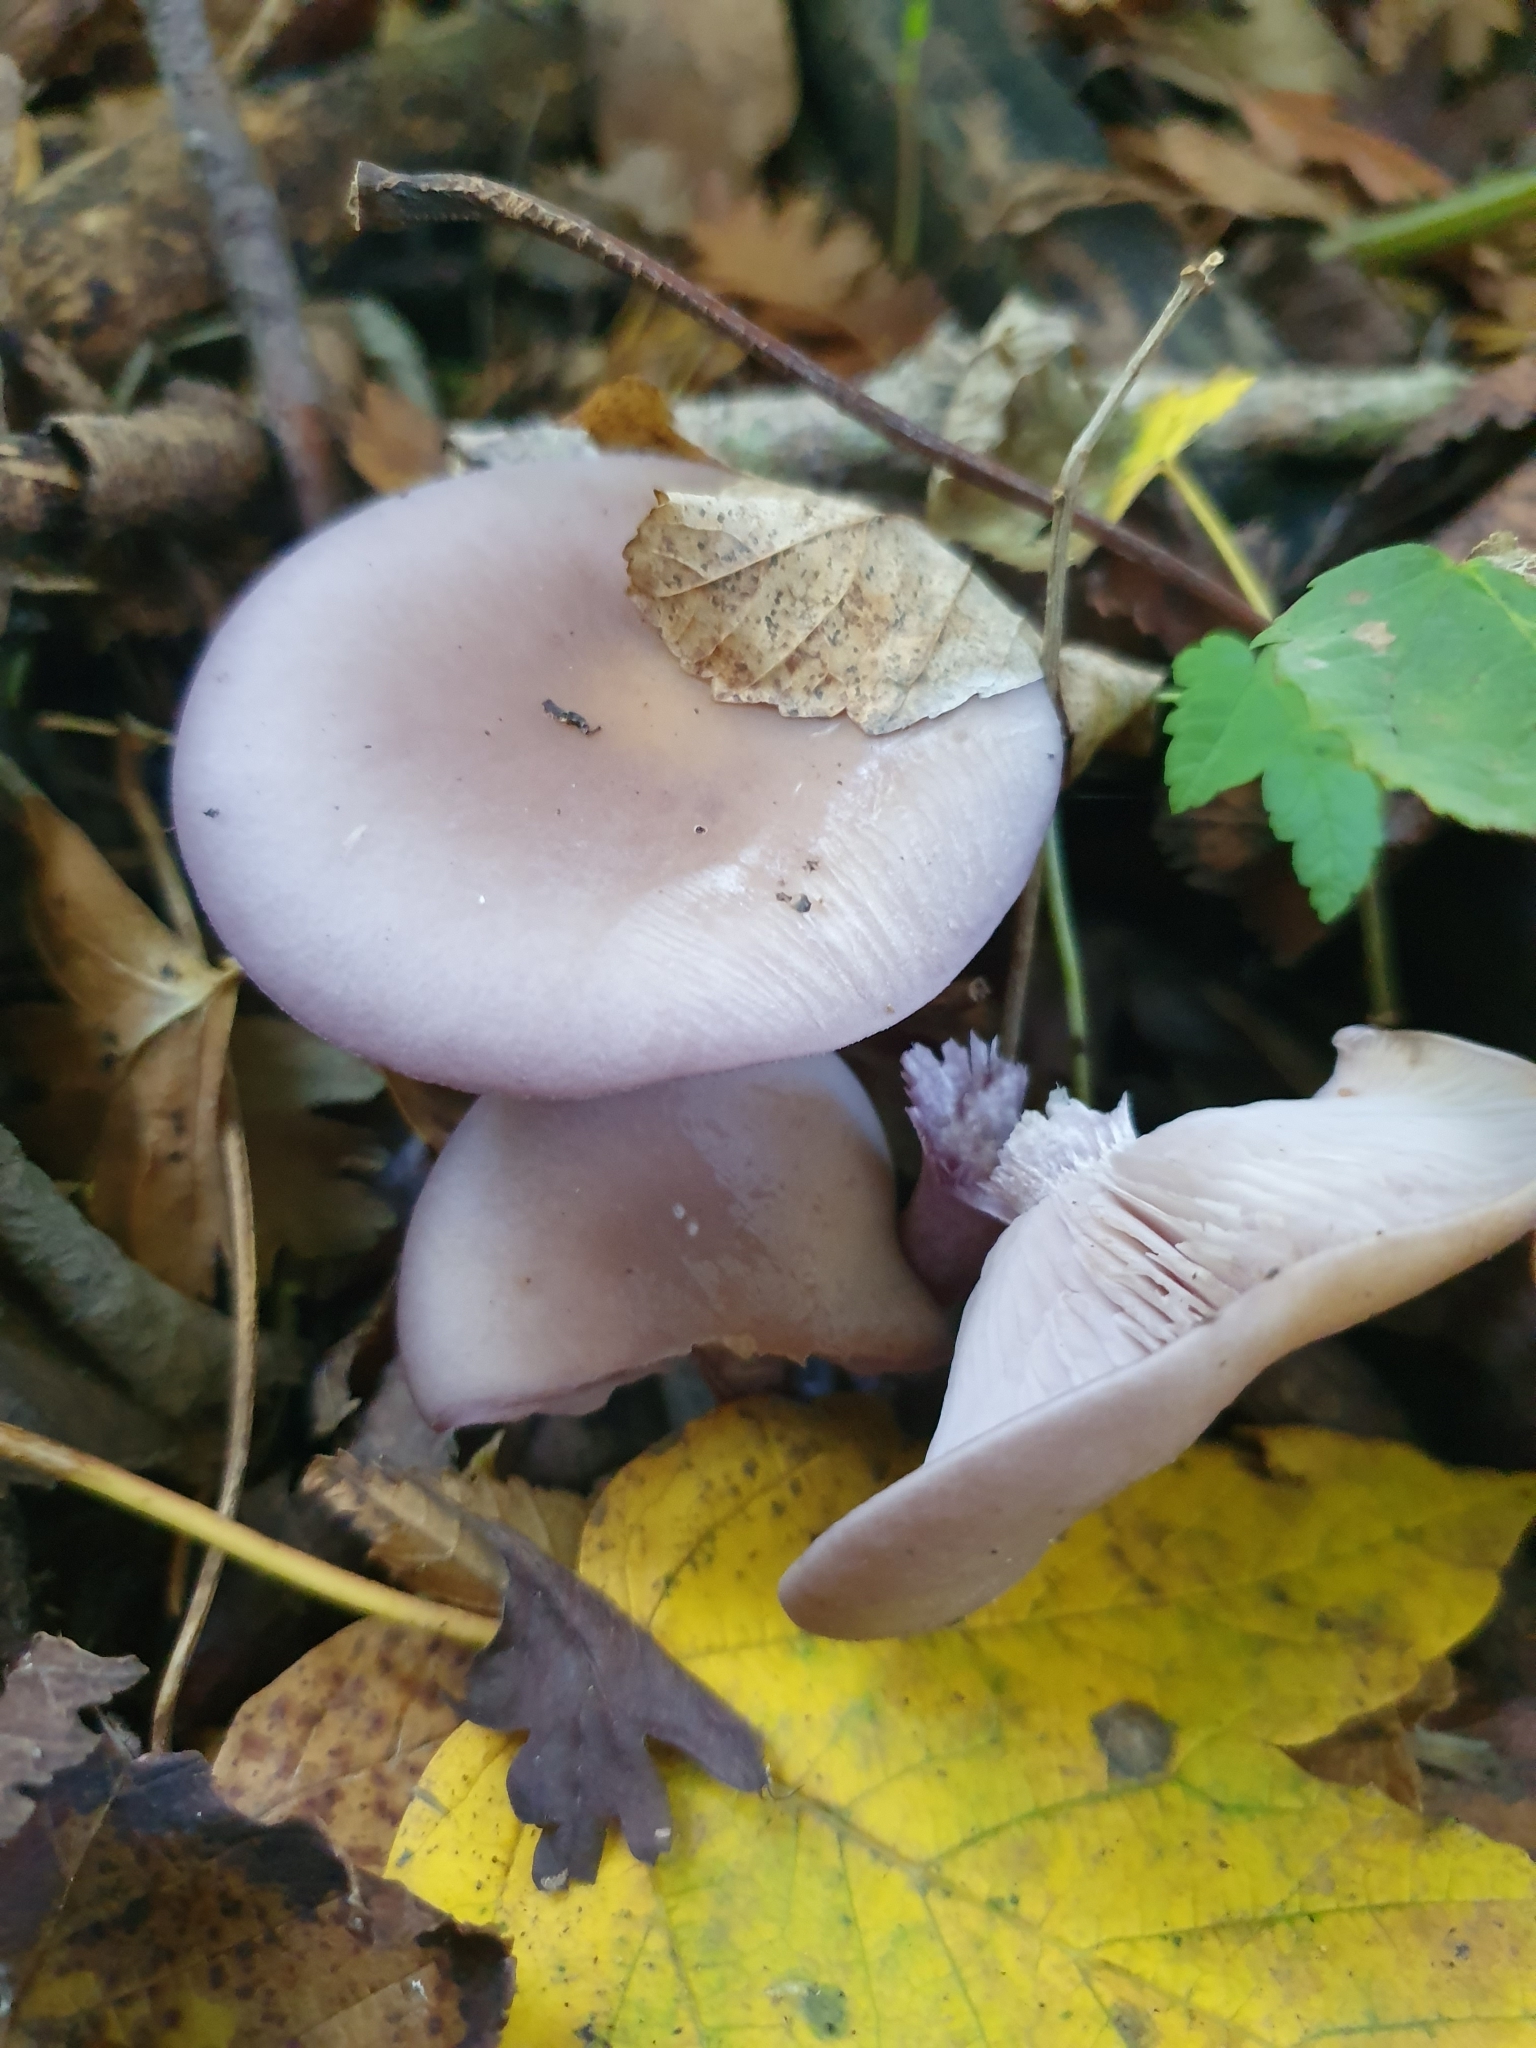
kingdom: Fungi
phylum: Basidiomycota
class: Agaricomycetes
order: Agaricales
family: Tricholomataceae
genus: Collybia
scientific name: Collybia
